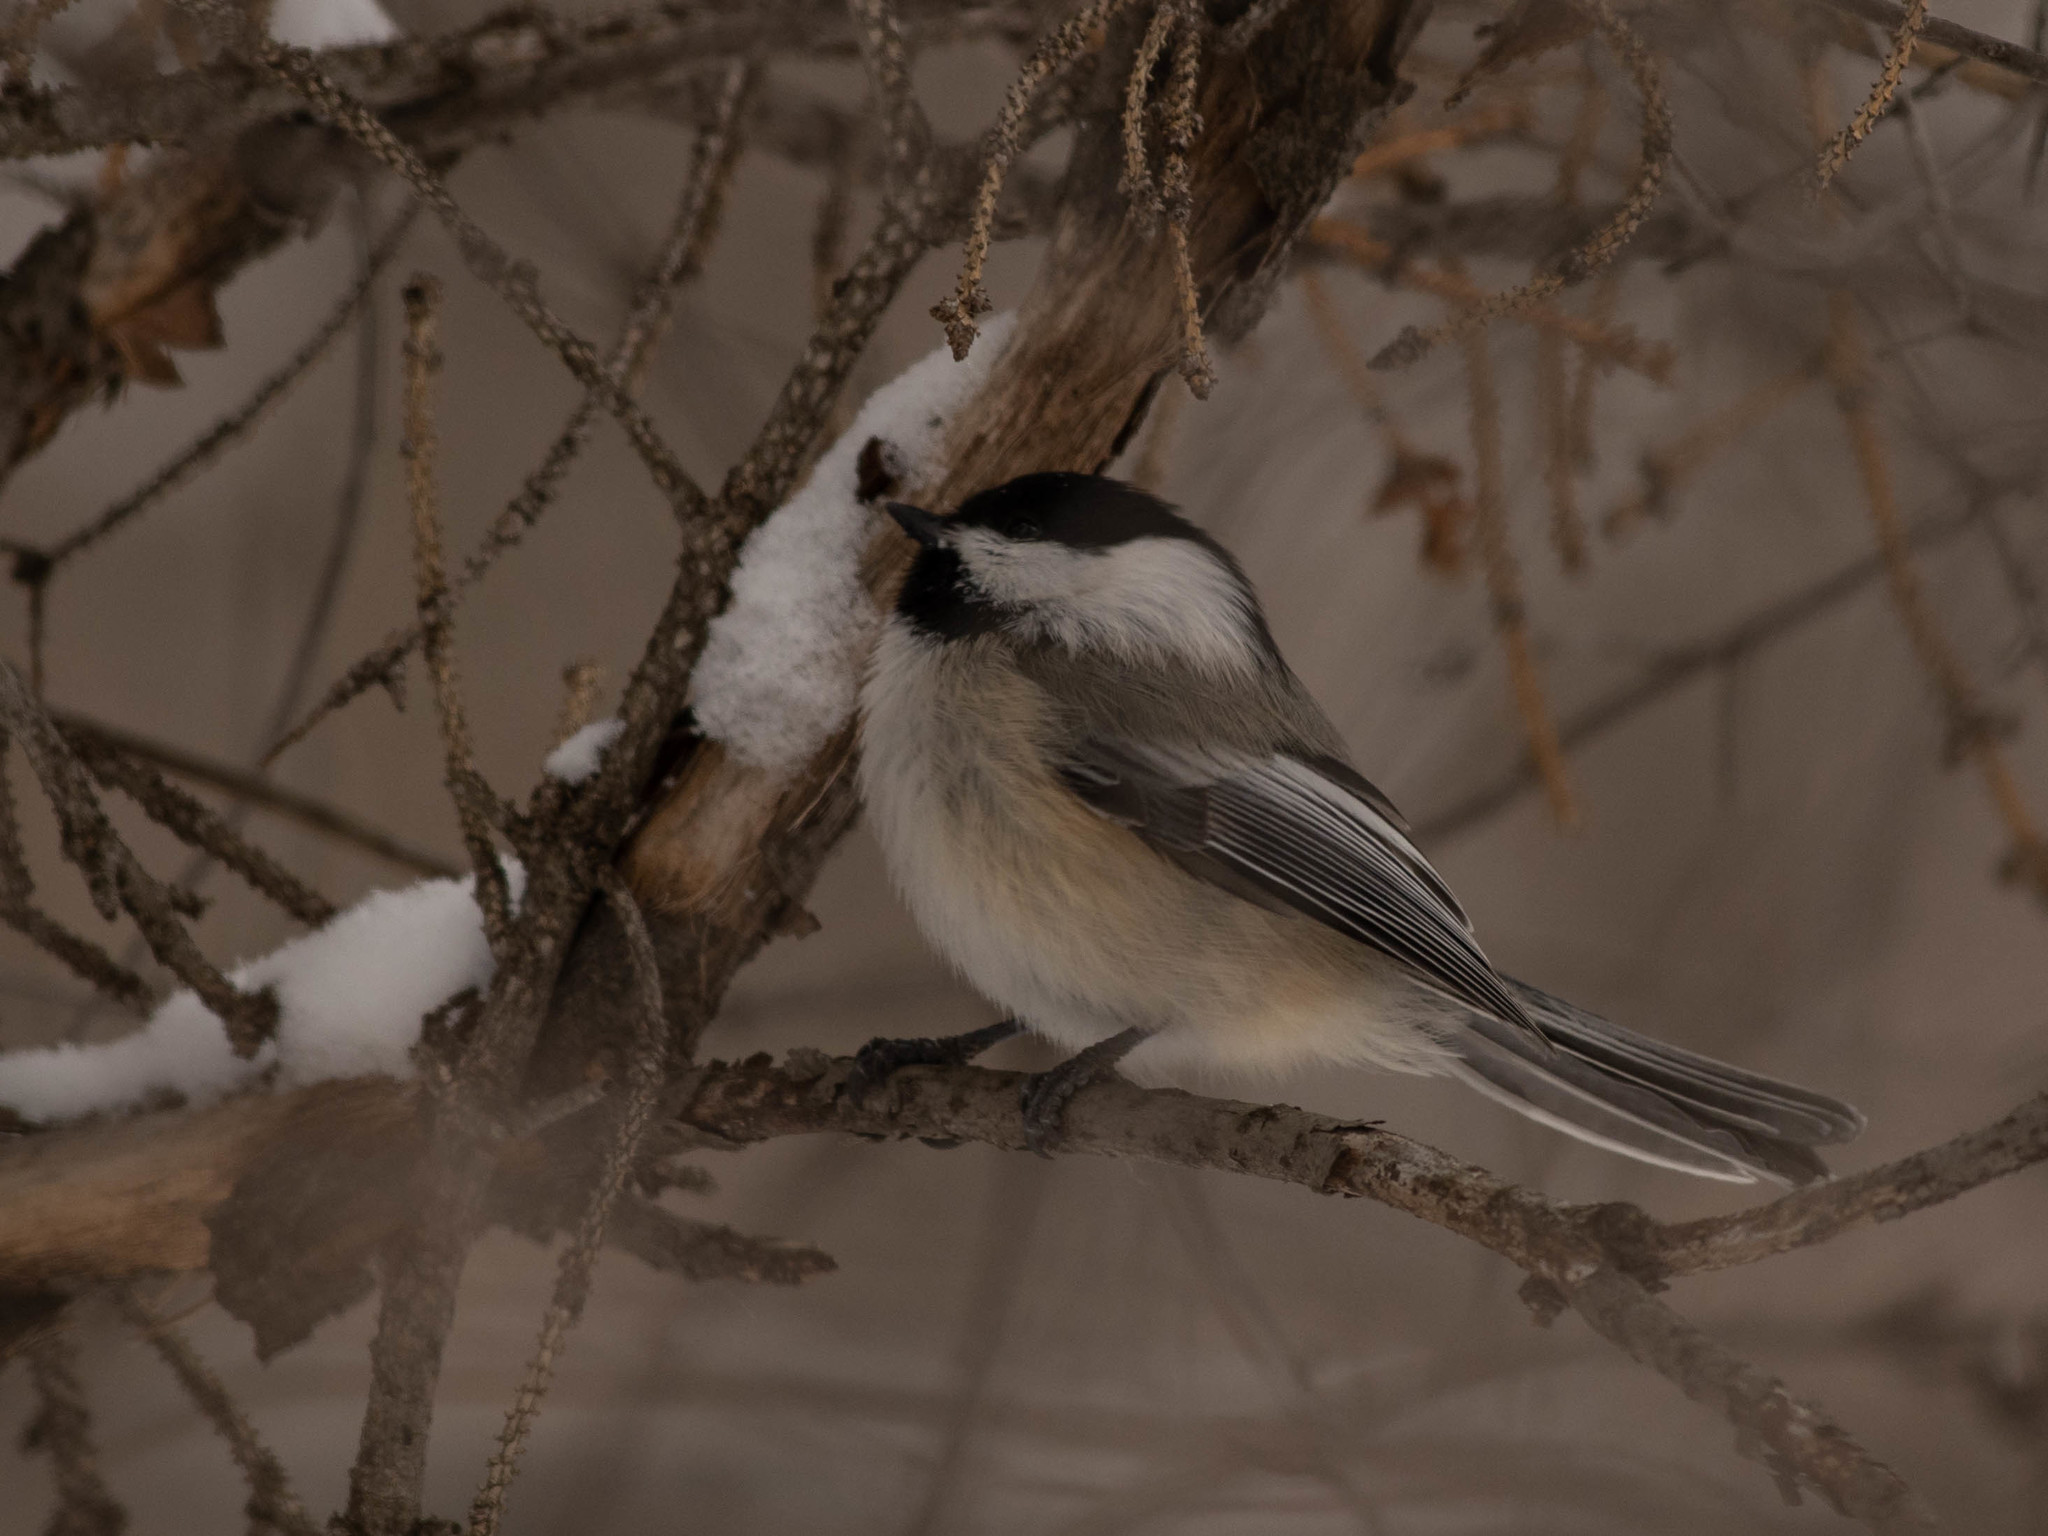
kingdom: Animalia
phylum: Chordata
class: Aves
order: Passeriformes
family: Paridae
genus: Poecile
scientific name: Poecile atricapillus
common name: Black-capped chickadee
